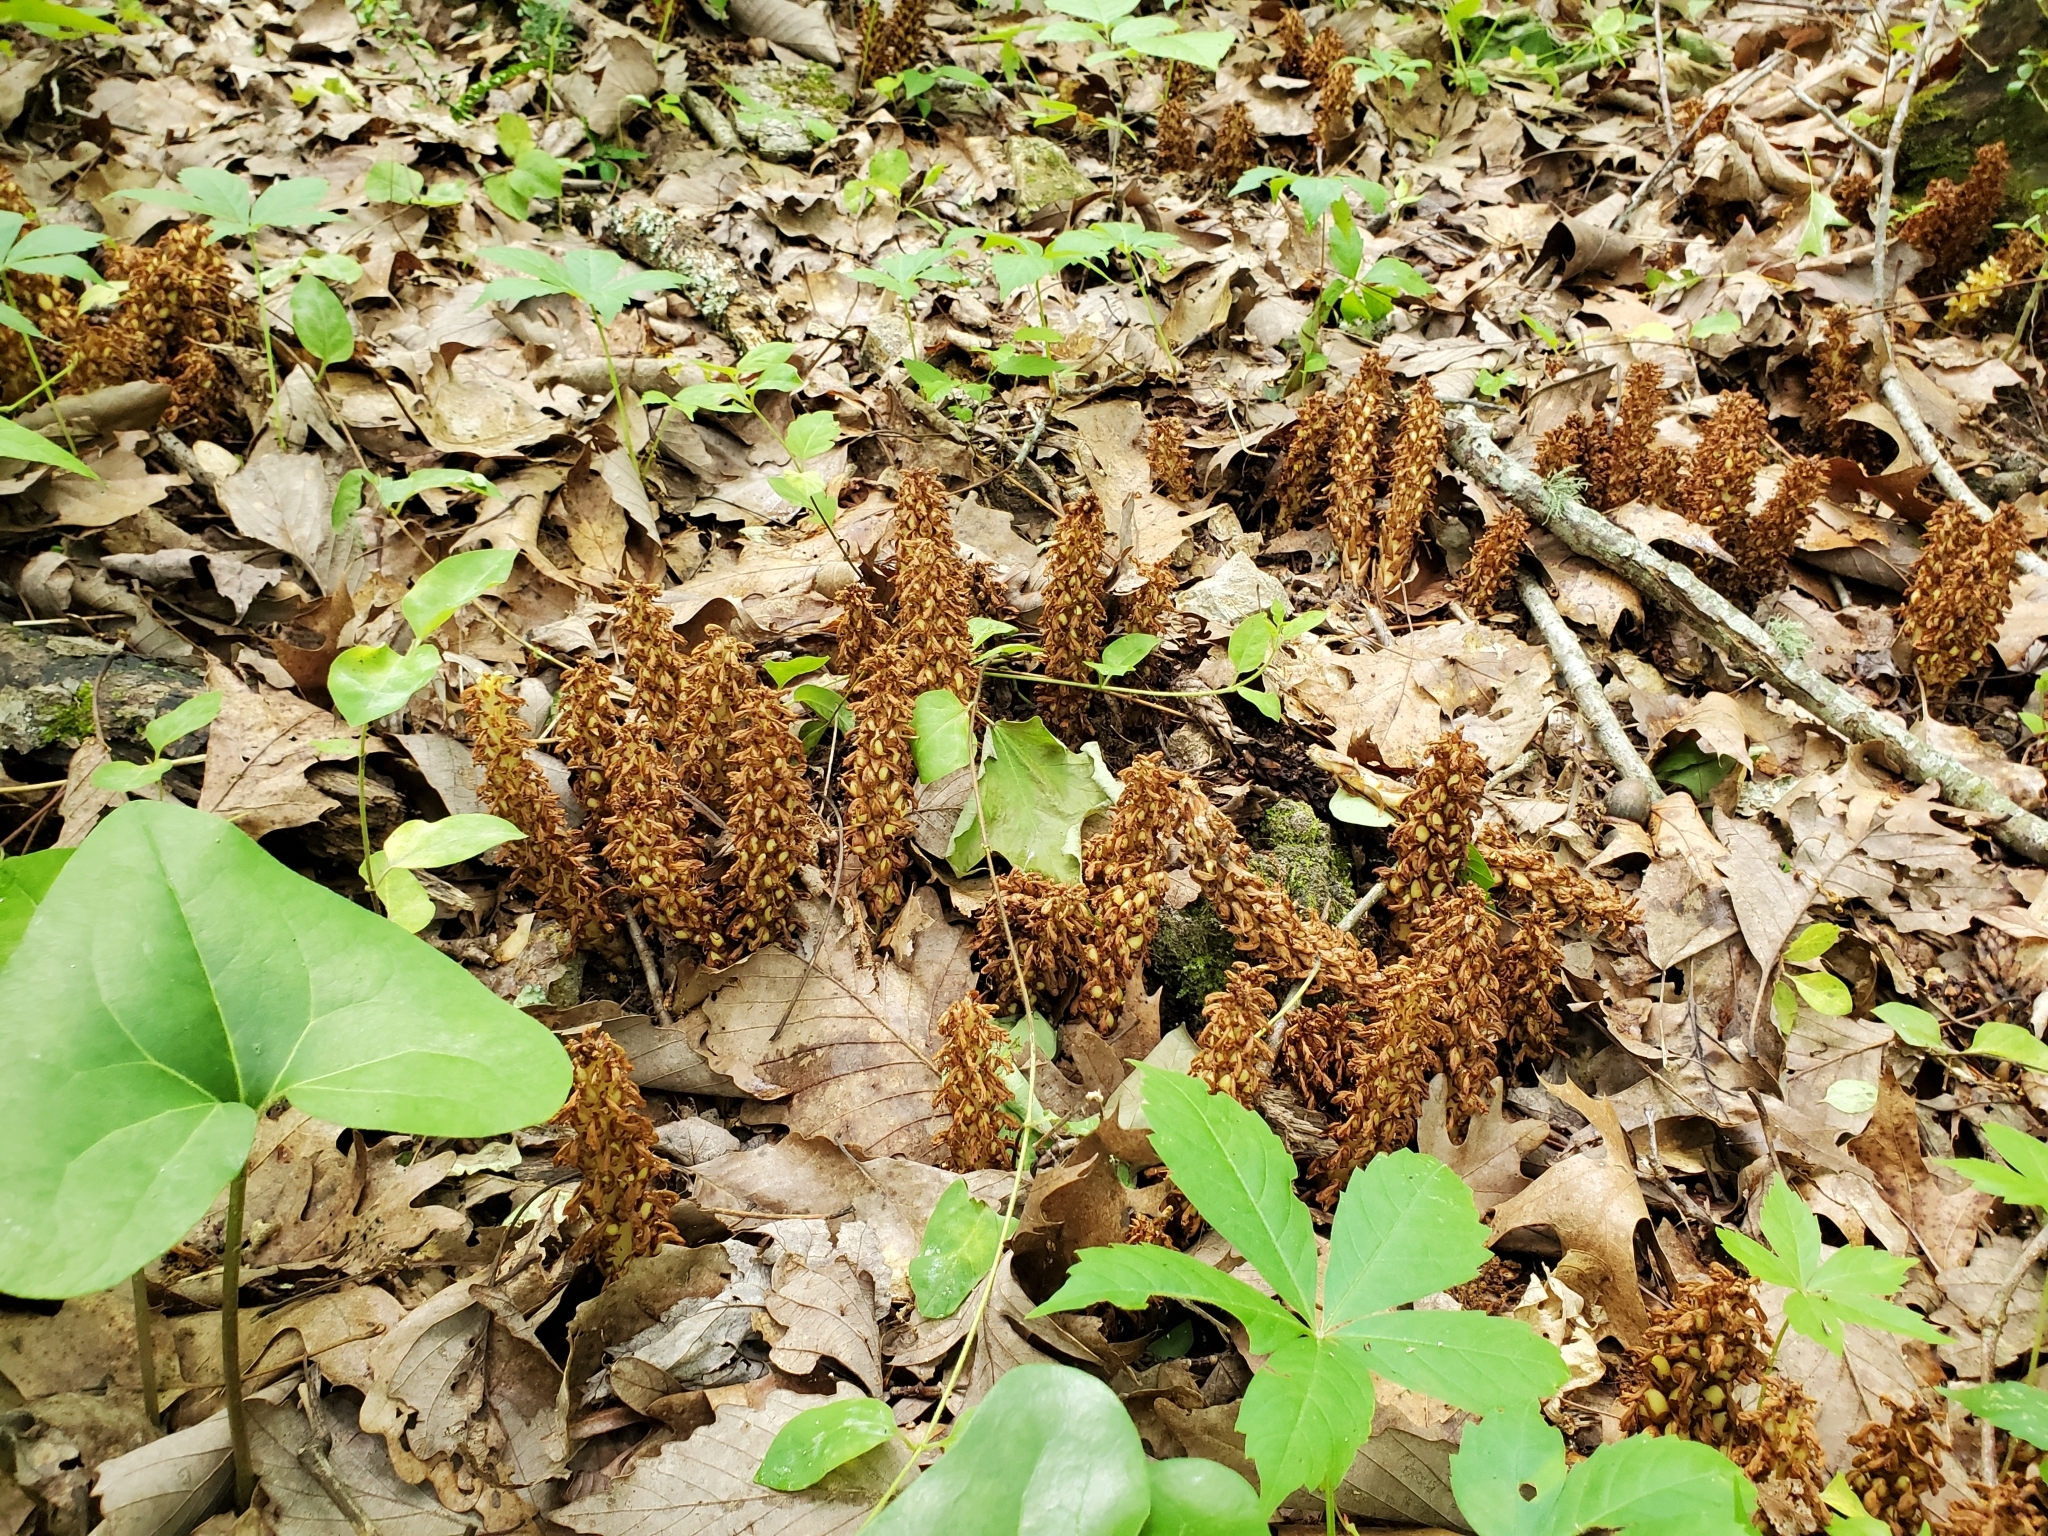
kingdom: Plantae
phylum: Tracheophyta
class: Magnoliopsida
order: Lamiales
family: Orobanchaceae
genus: Conopholis
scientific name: Conopholis americana
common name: American cancer-root
